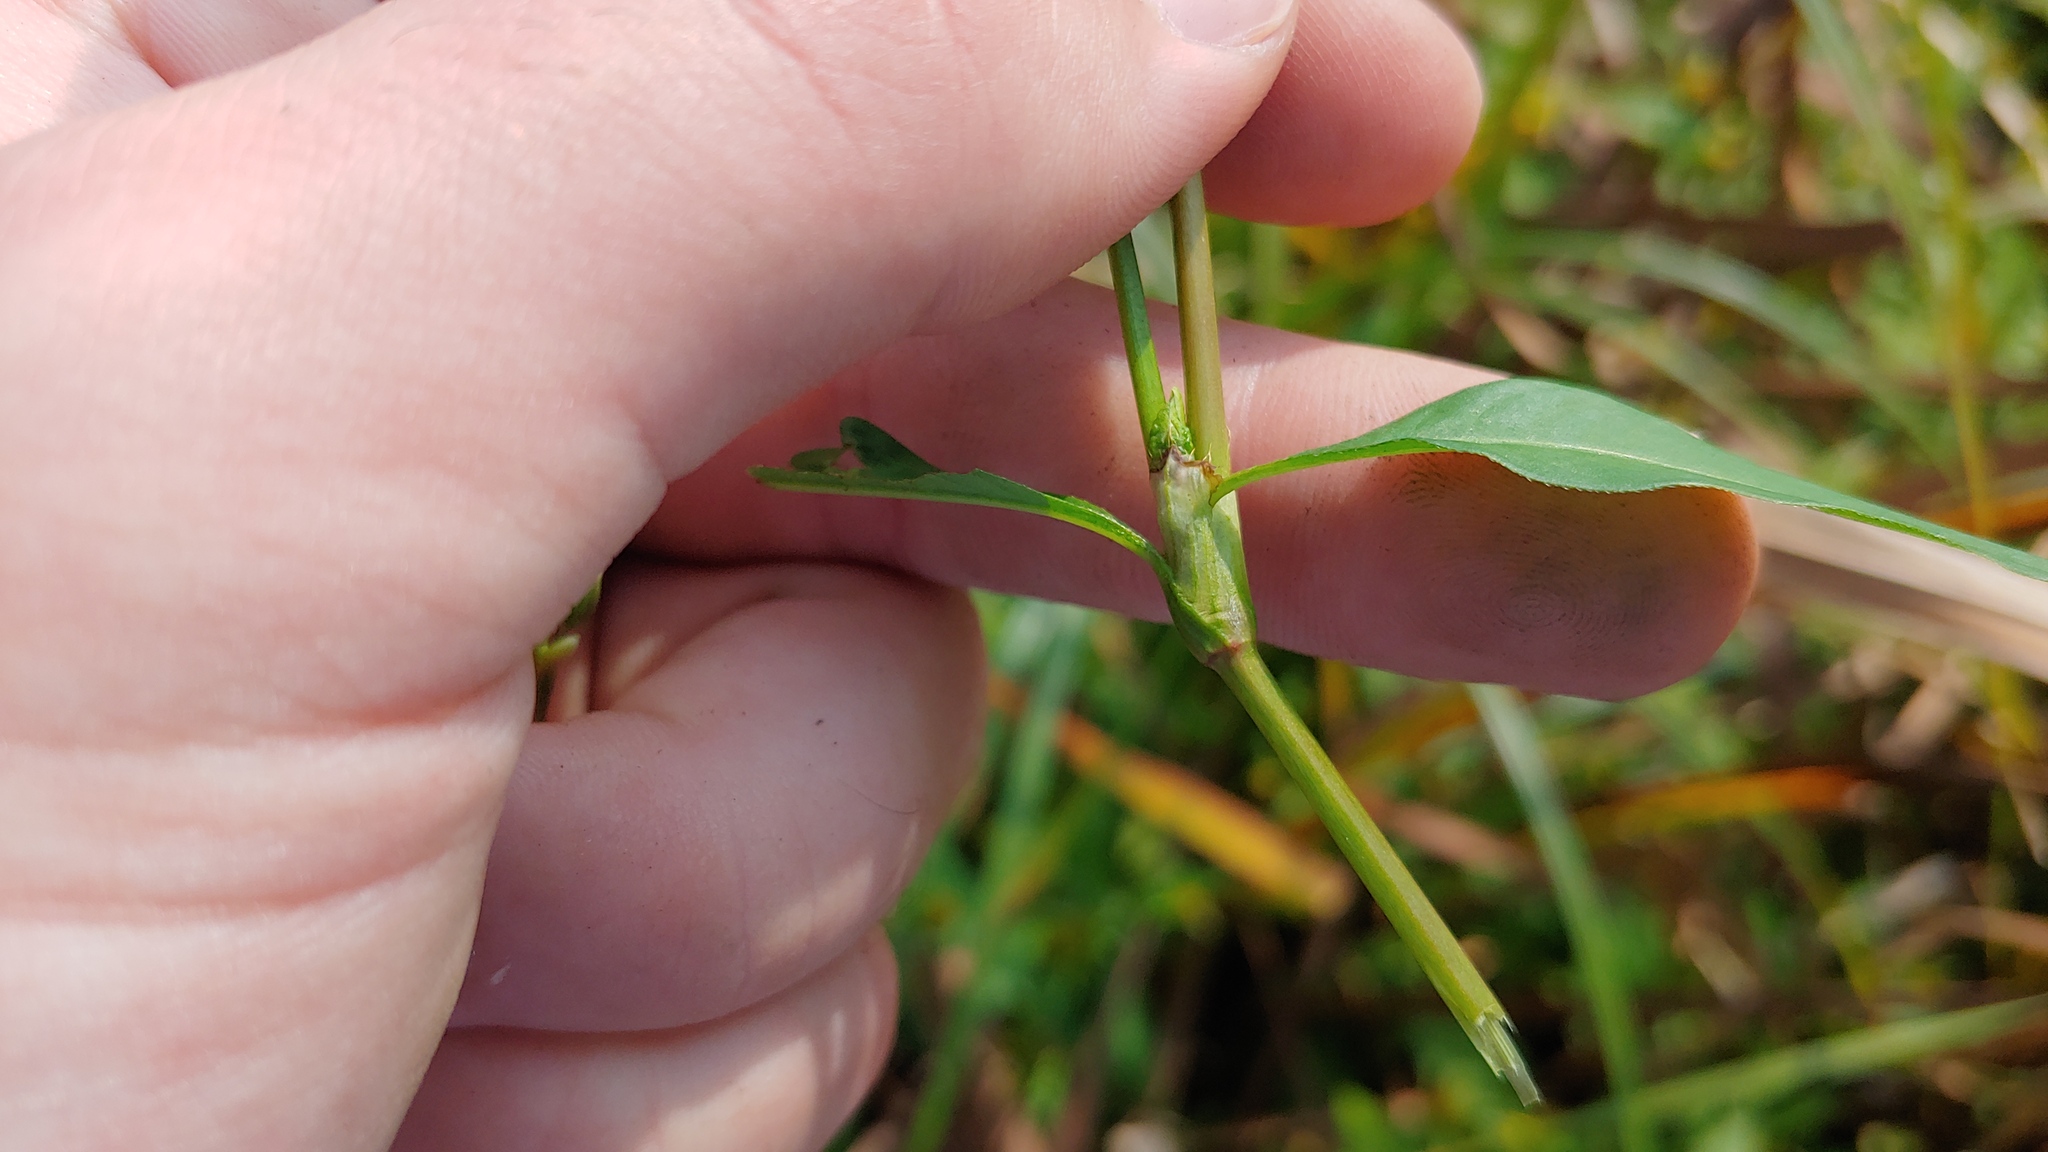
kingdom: Plantae
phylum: Tracheophyta
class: Magnoliopsida
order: Caryophyllales
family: Polygonaceae
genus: Persicaria
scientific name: Persicaria hydropiper
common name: Water-pepper
